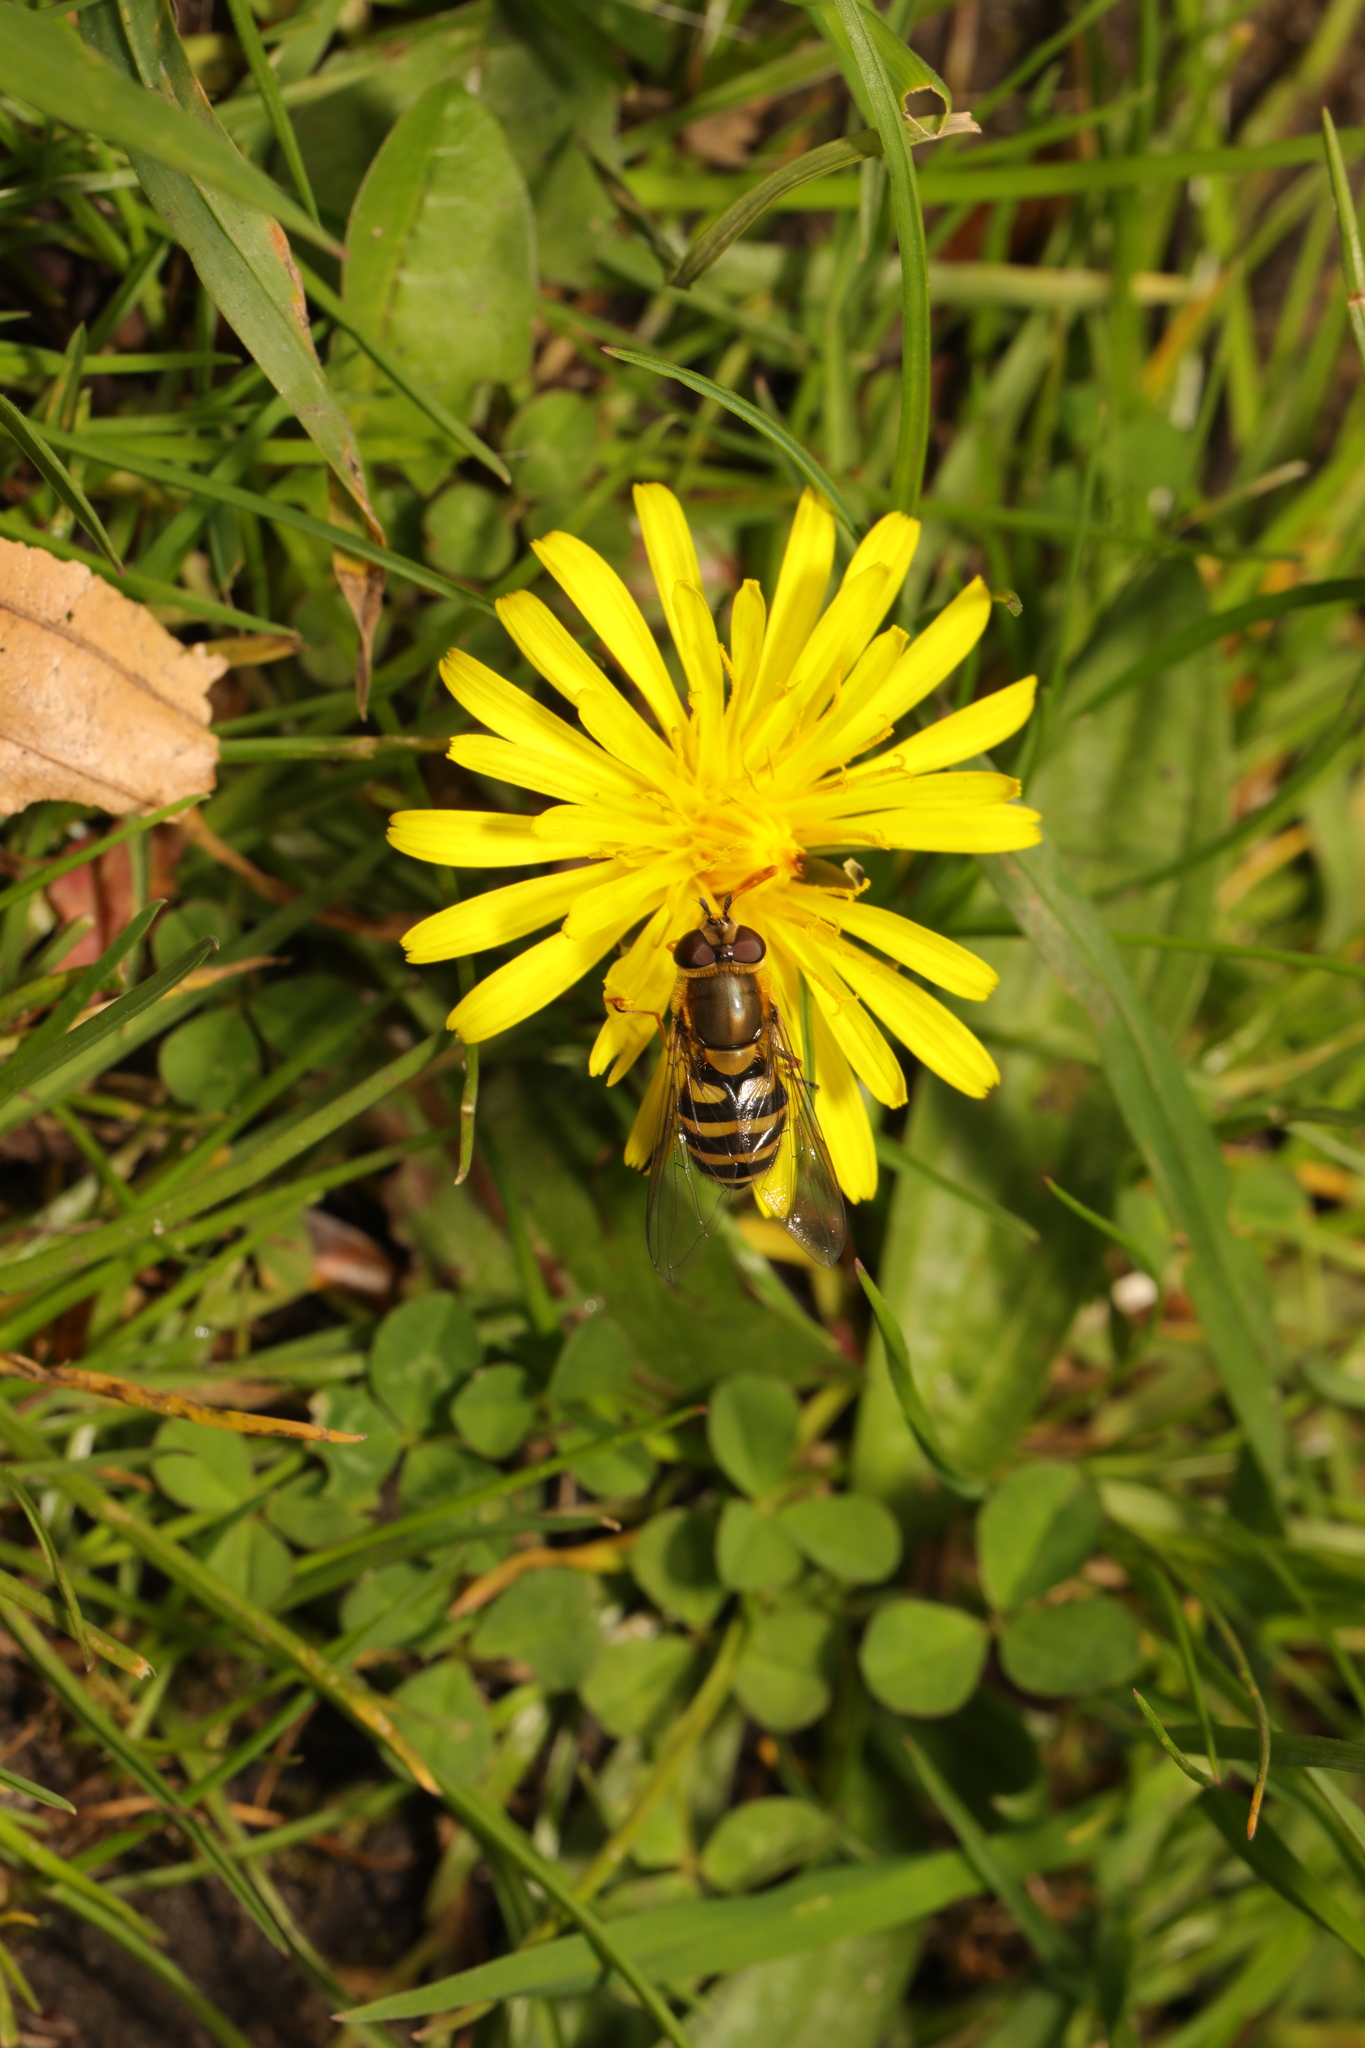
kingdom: Animalia
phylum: Arthropoda
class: Insecta
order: Diptera
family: Syrphidae
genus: Syrphus
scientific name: Syrphus
